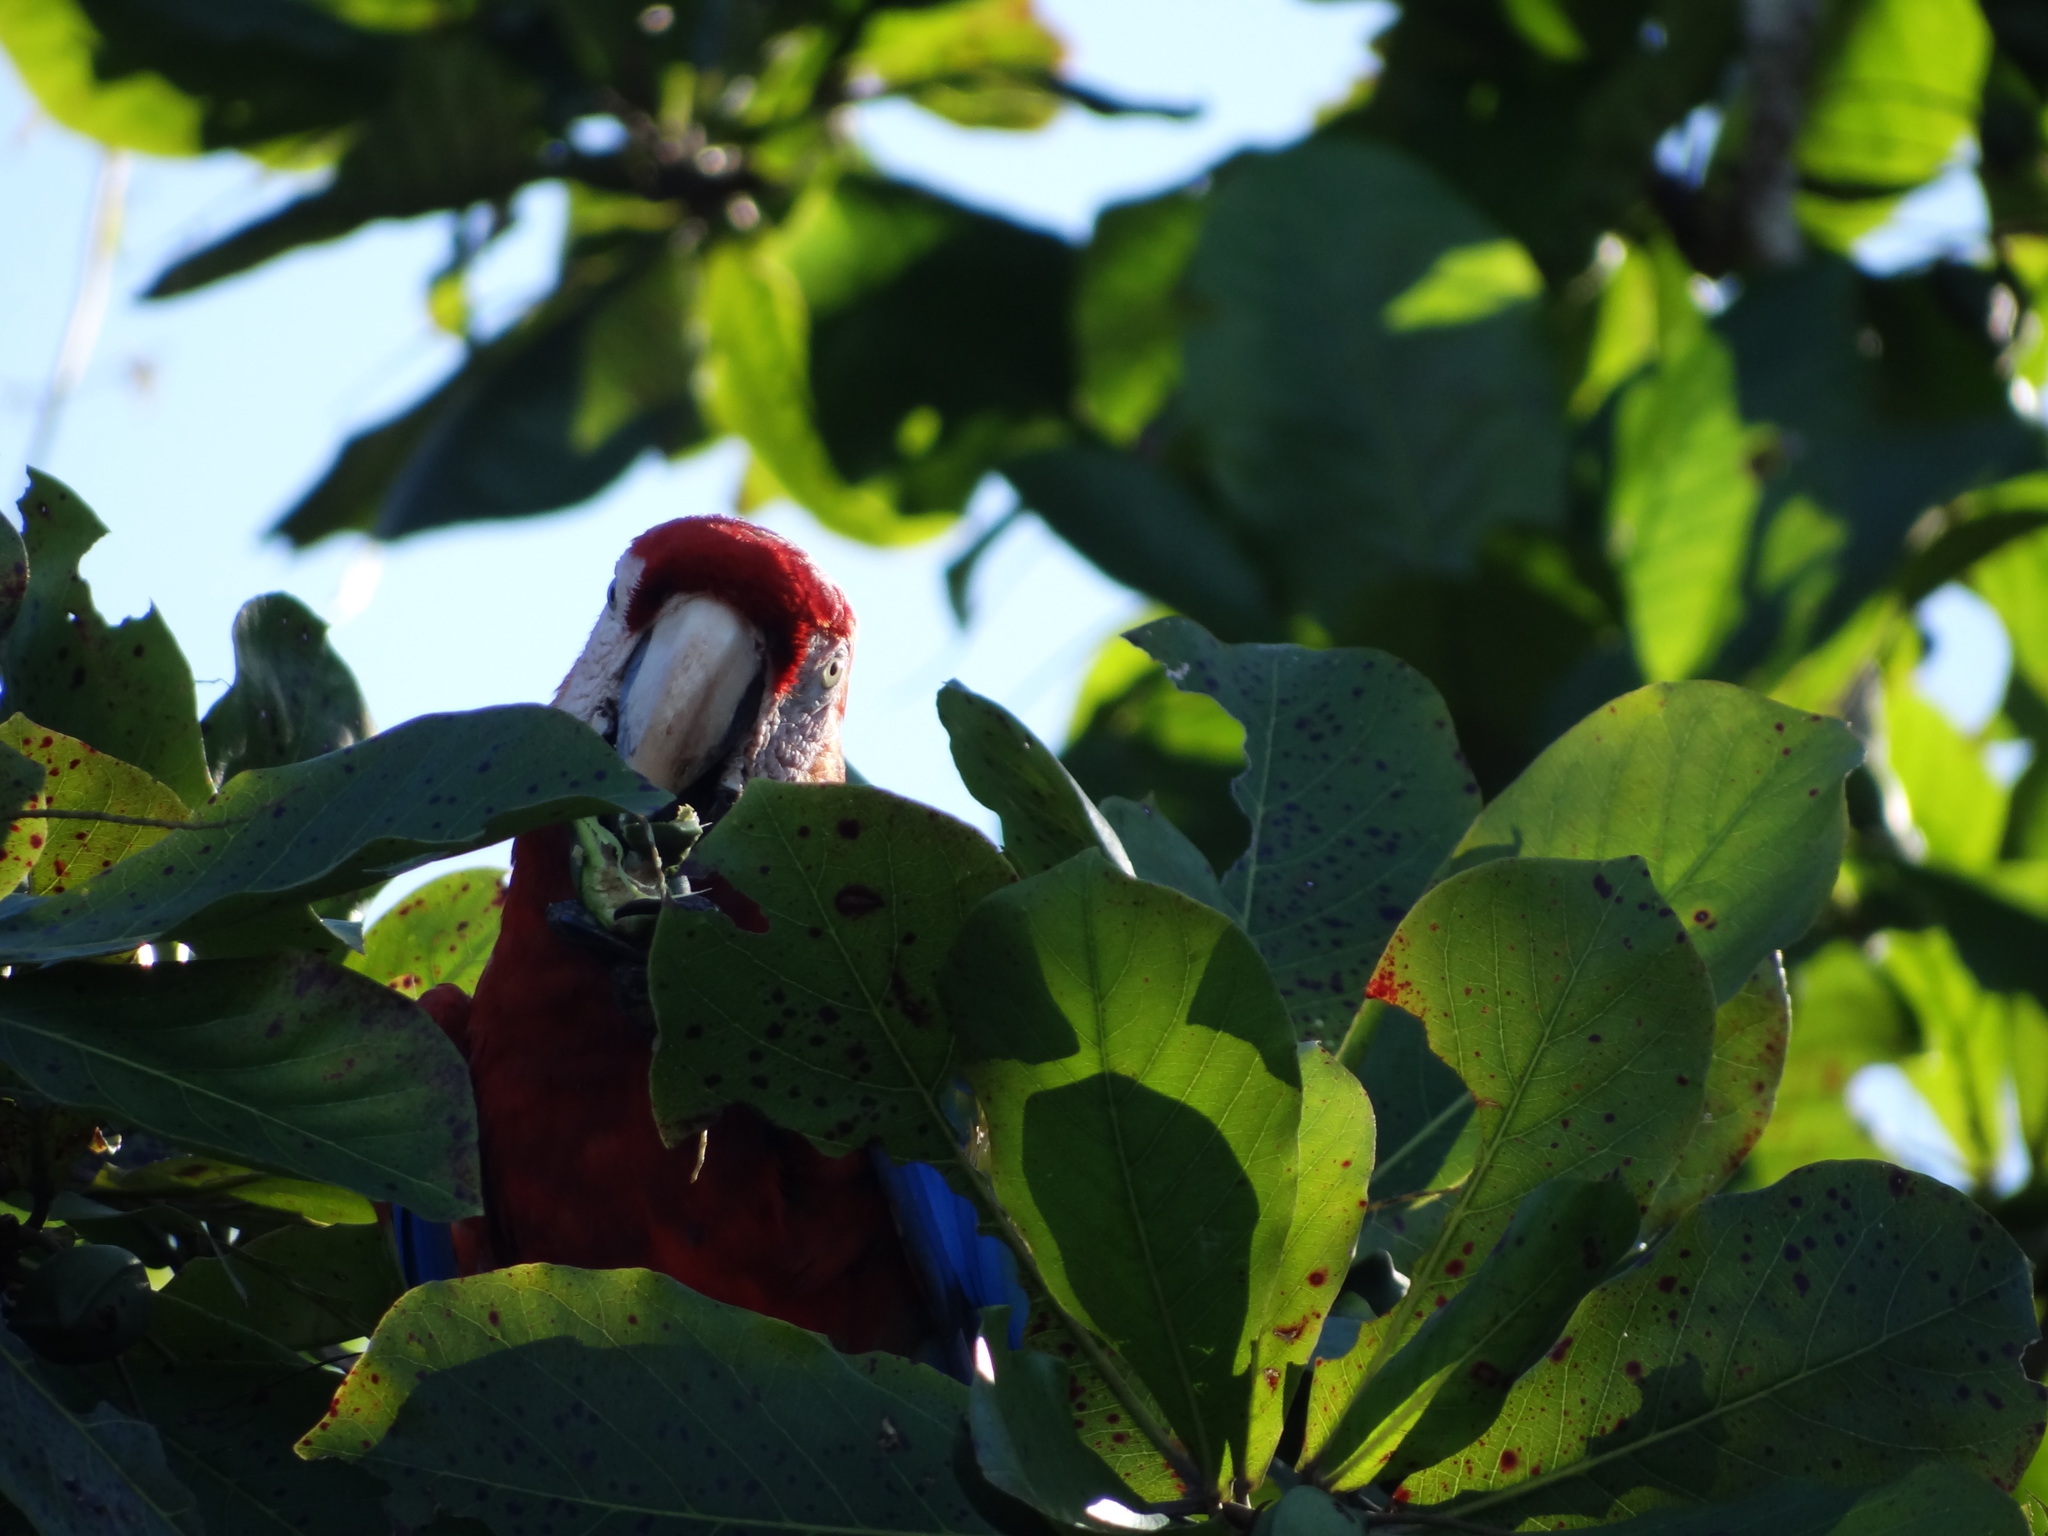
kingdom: Animalia
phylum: Chordata
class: Aves
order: Psittaciformes
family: Psittacidae
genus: Ara
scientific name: Ara macao
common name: Scarlet macaw
